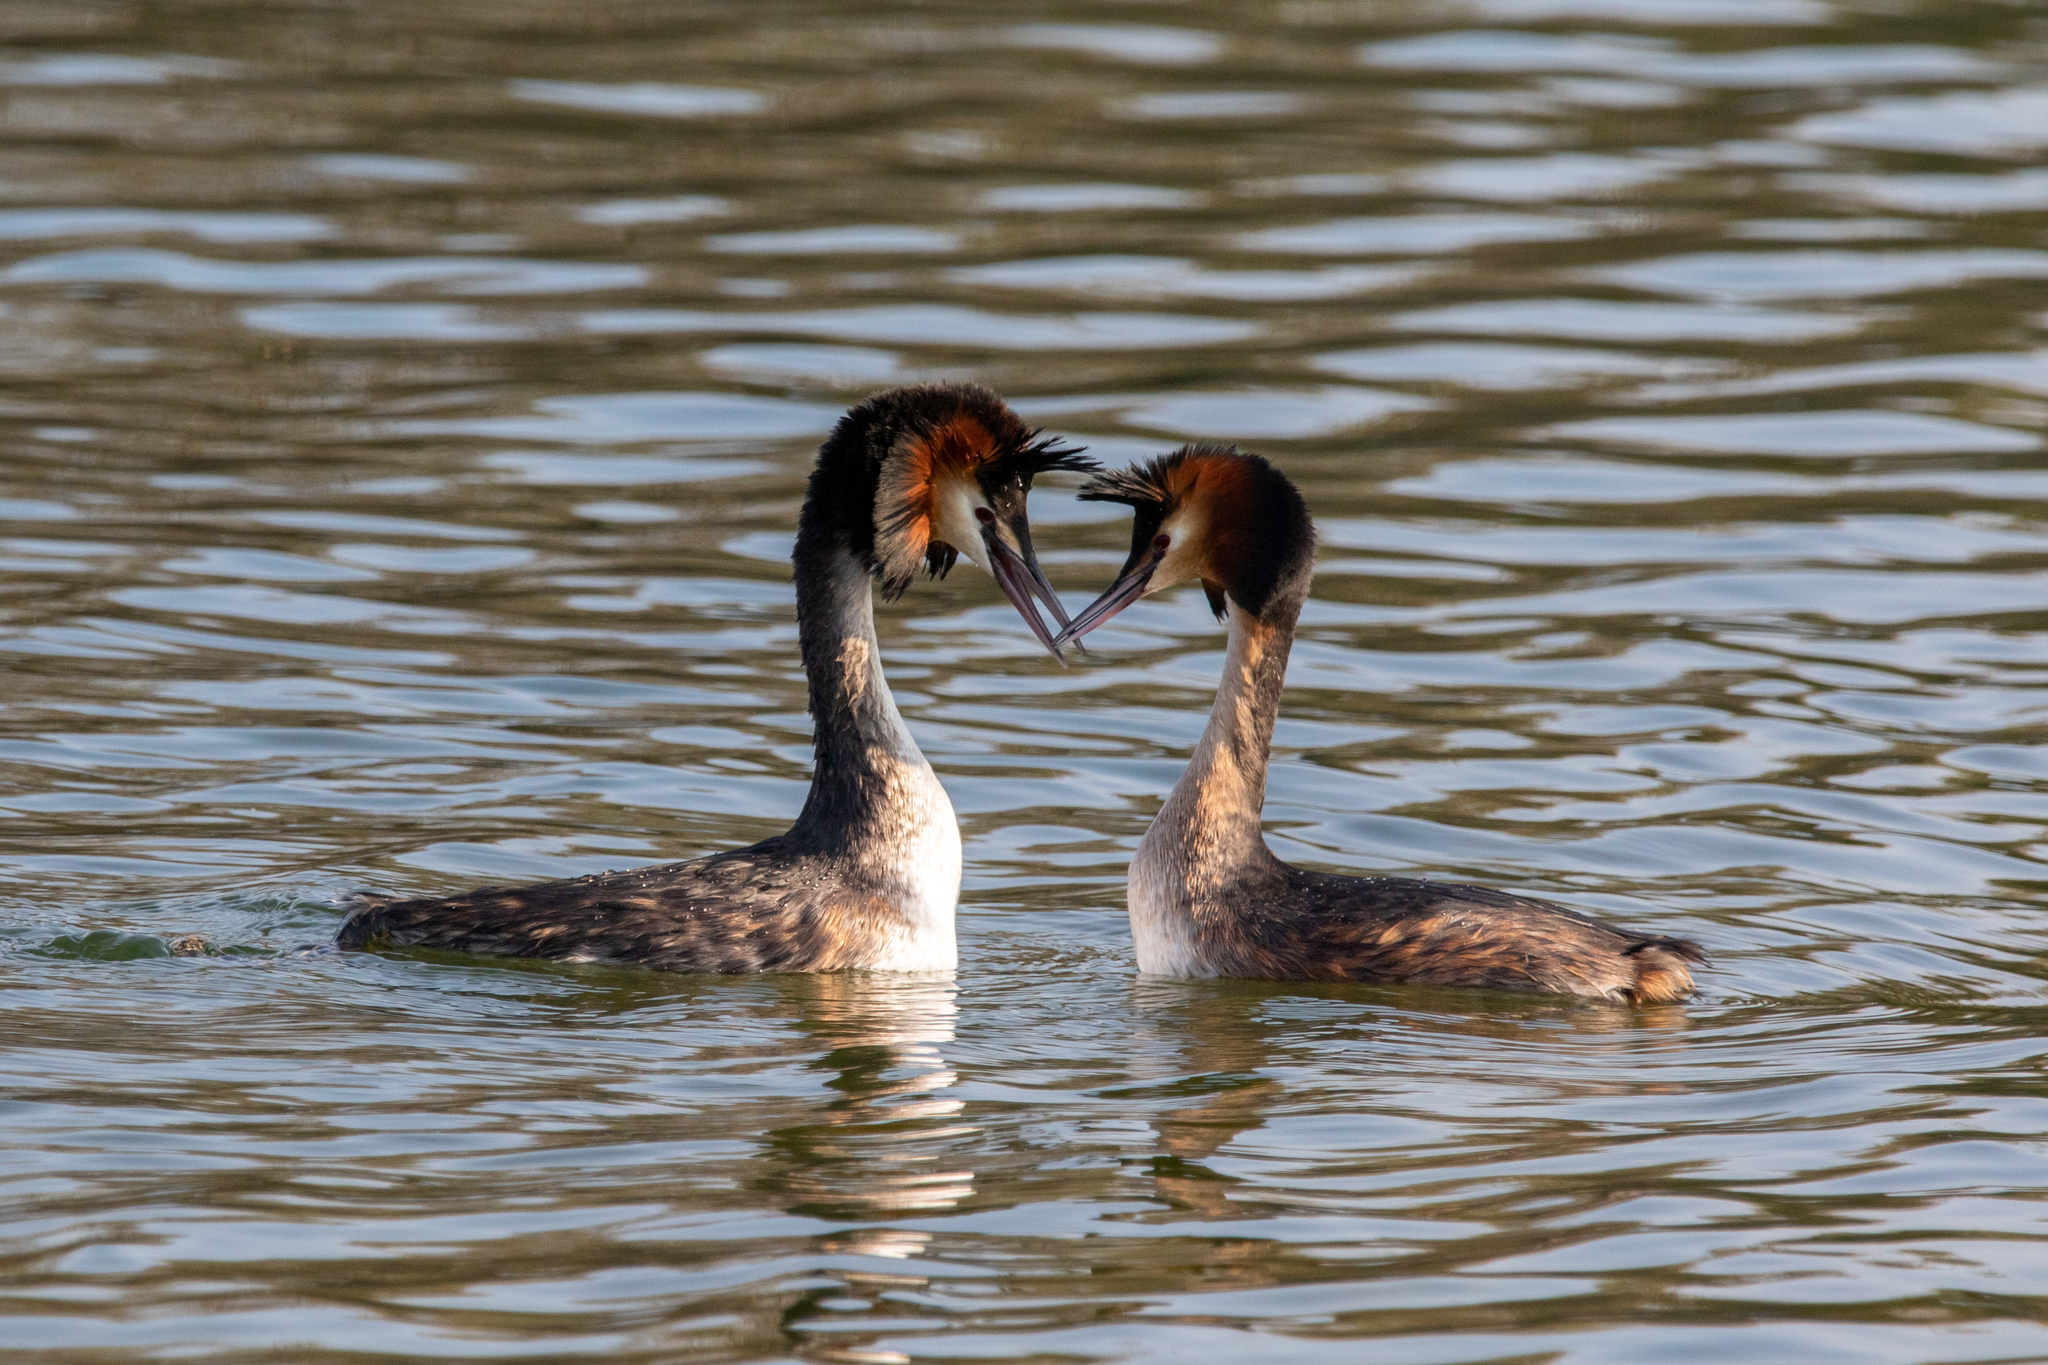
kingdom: Animalia
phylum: Chordata
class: Aves
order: Podicipediformes
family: Podicipedidae
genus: Podiceps
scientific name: Podiceps cristatus
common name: Great crested grebe
